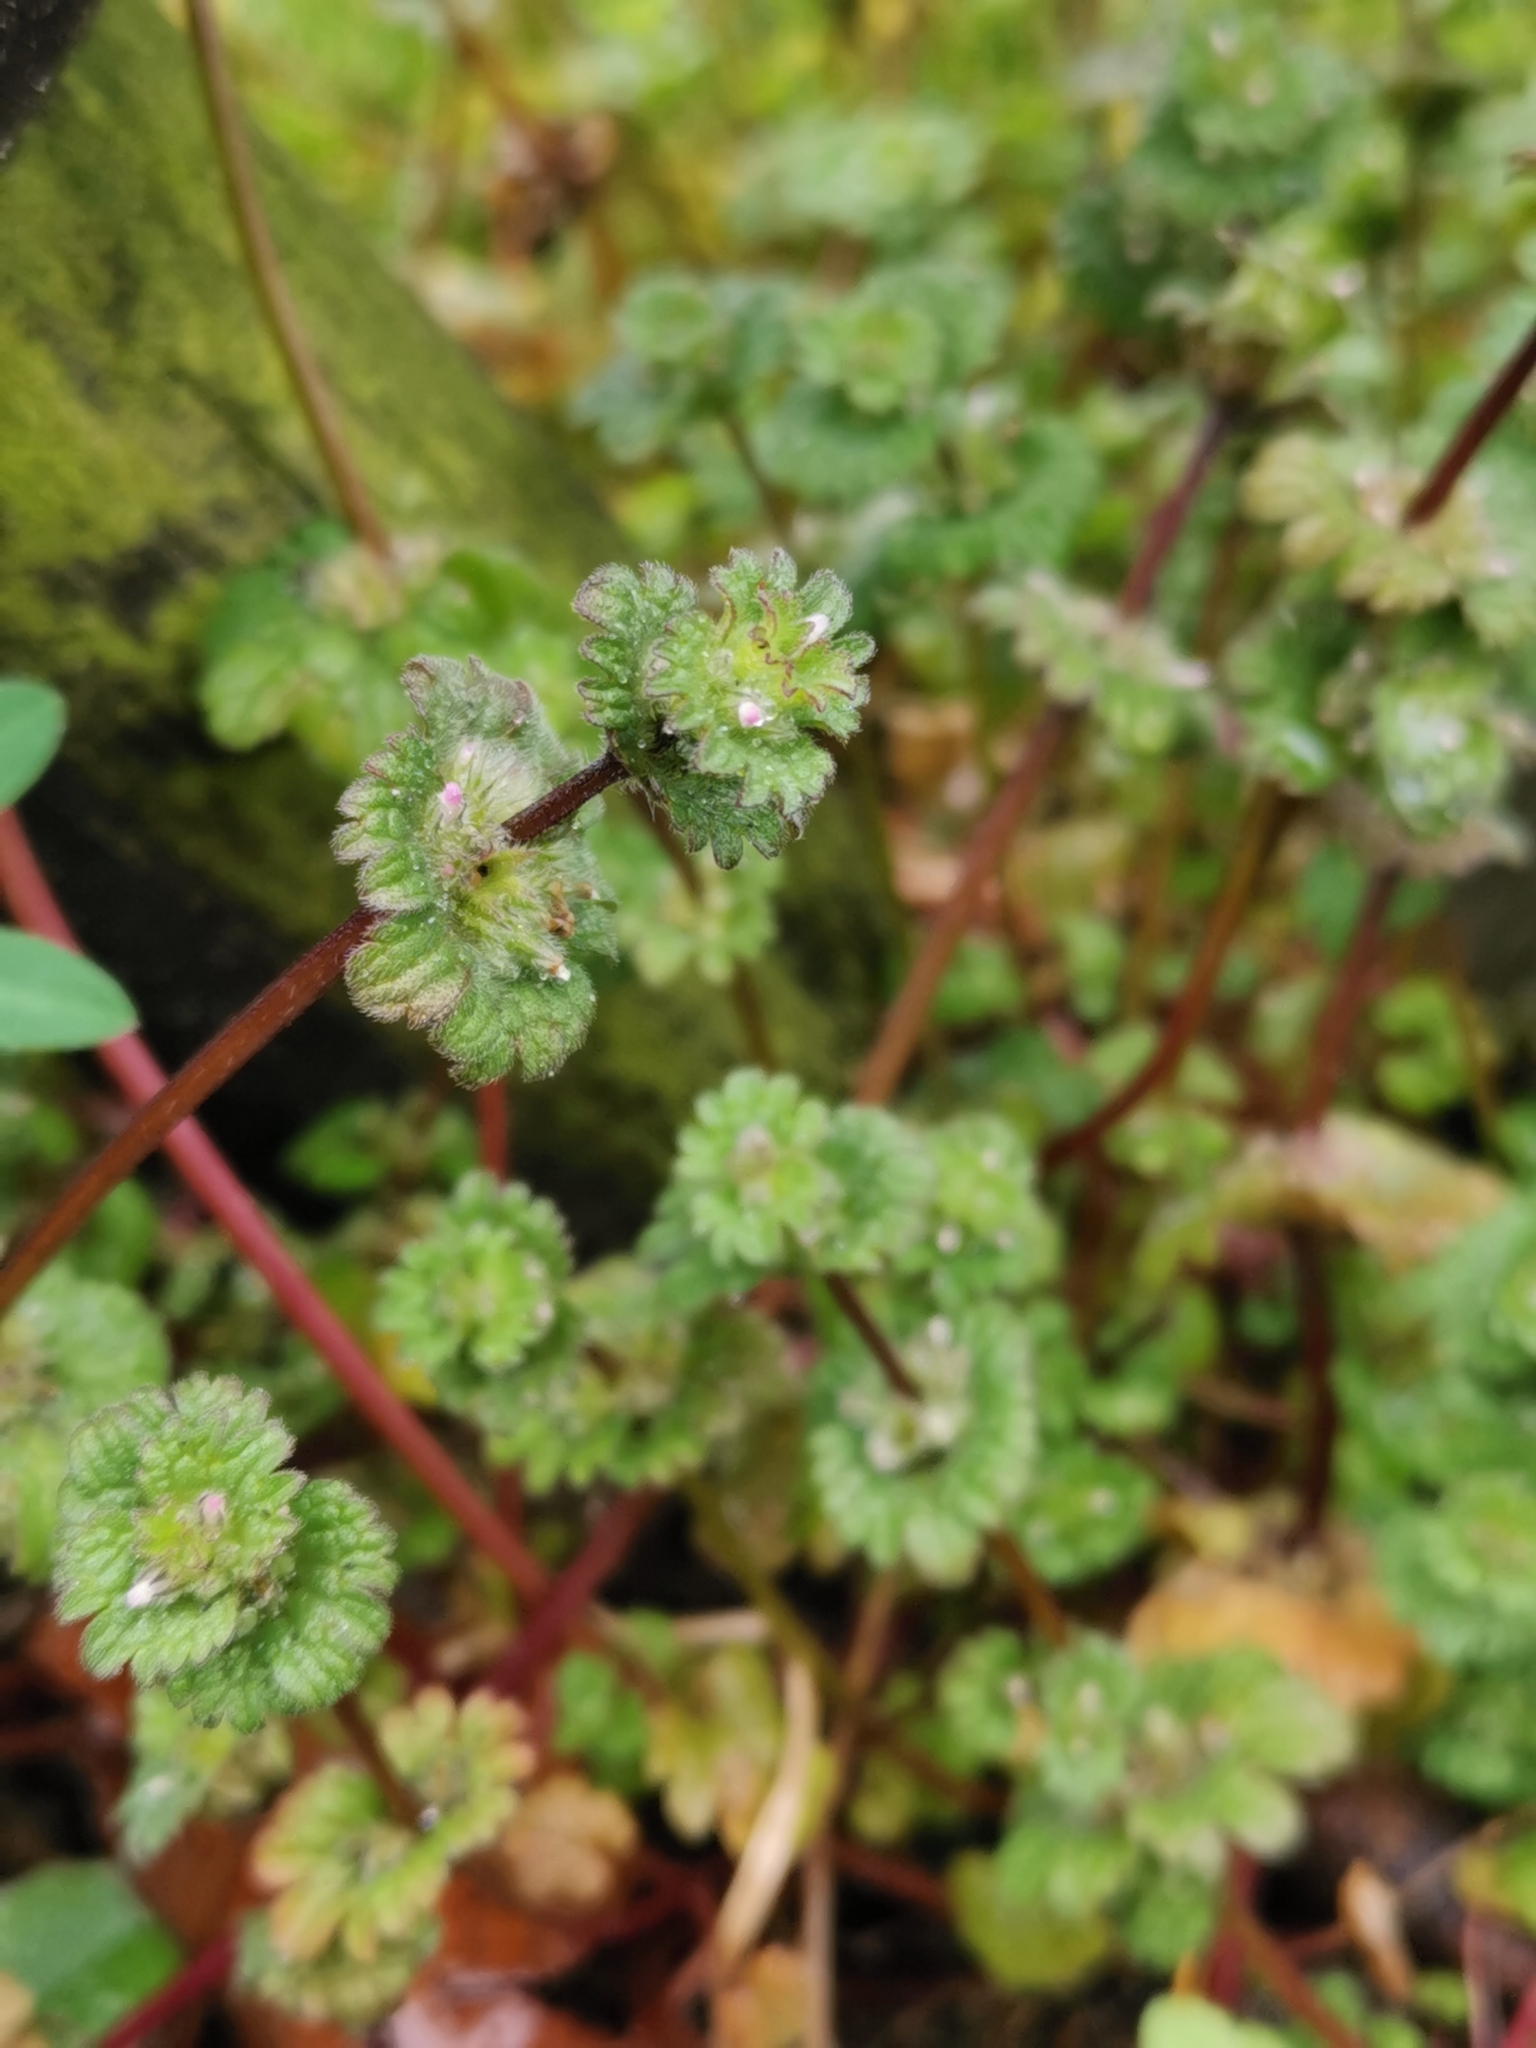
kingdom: Plantae
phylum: Tracheophyta
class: Magnoliopsida
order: Lamiales
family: Lamiaceae
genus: Lamium
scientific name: Lamium amplexicaule
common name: Henbit dead-nettle
